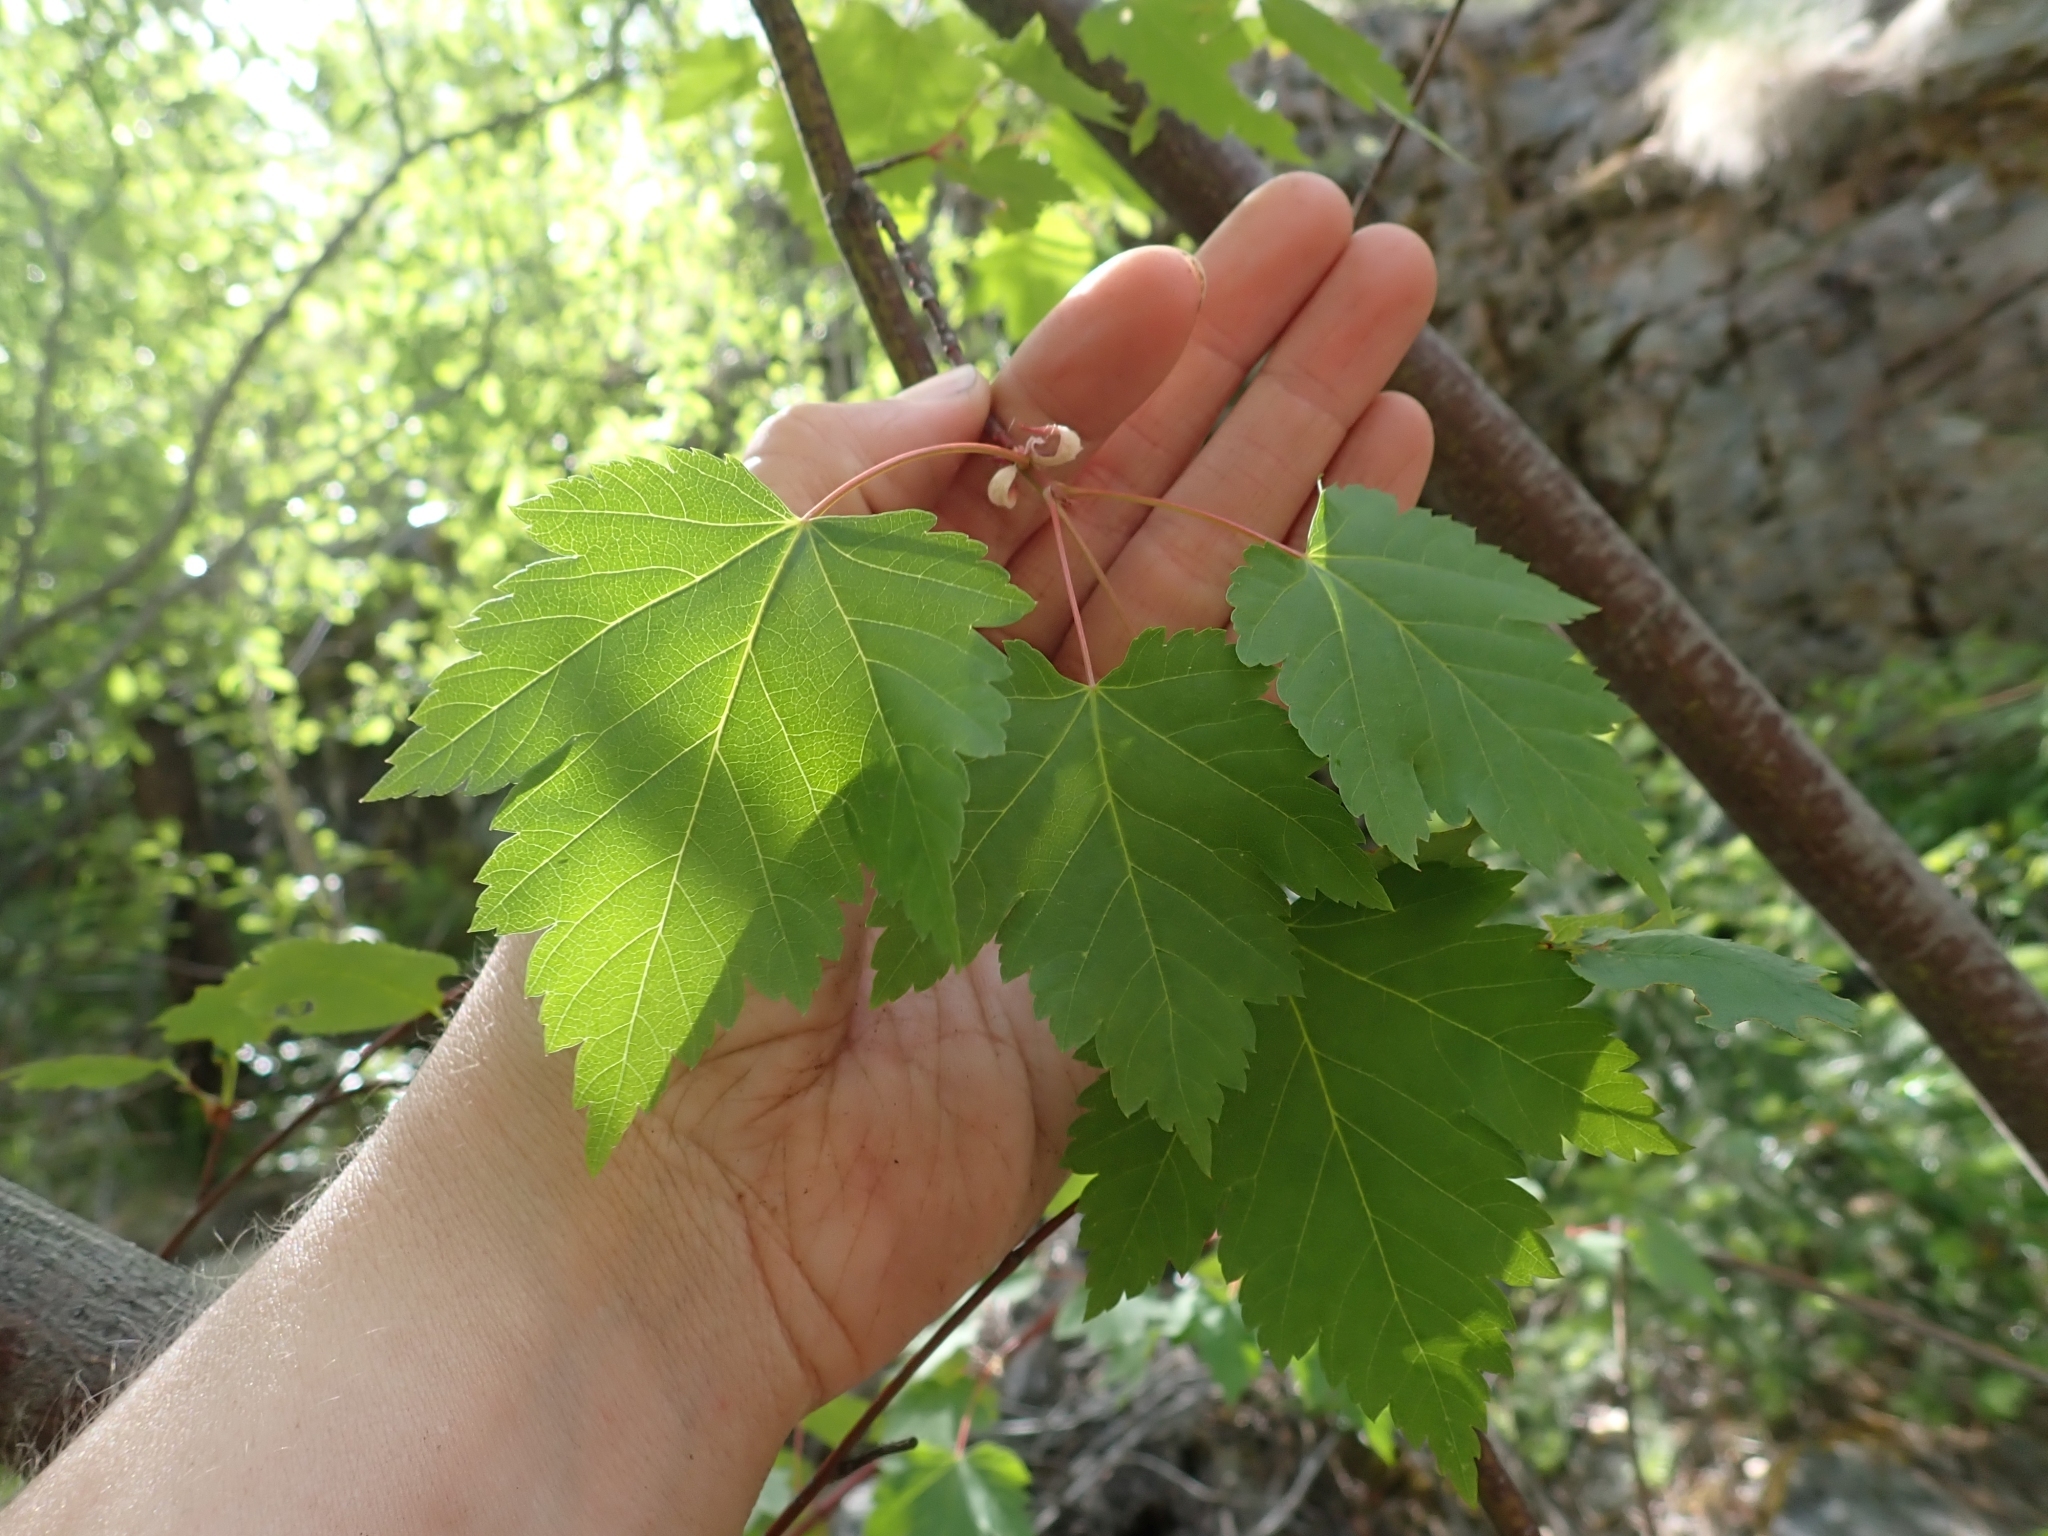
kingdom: Plantae
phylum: Tracheophyta
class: Magnoliopsida
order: Sapindales
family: Sapindaceae
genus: Acer
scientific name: Acer glabrum
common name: Rocky mountain maple
